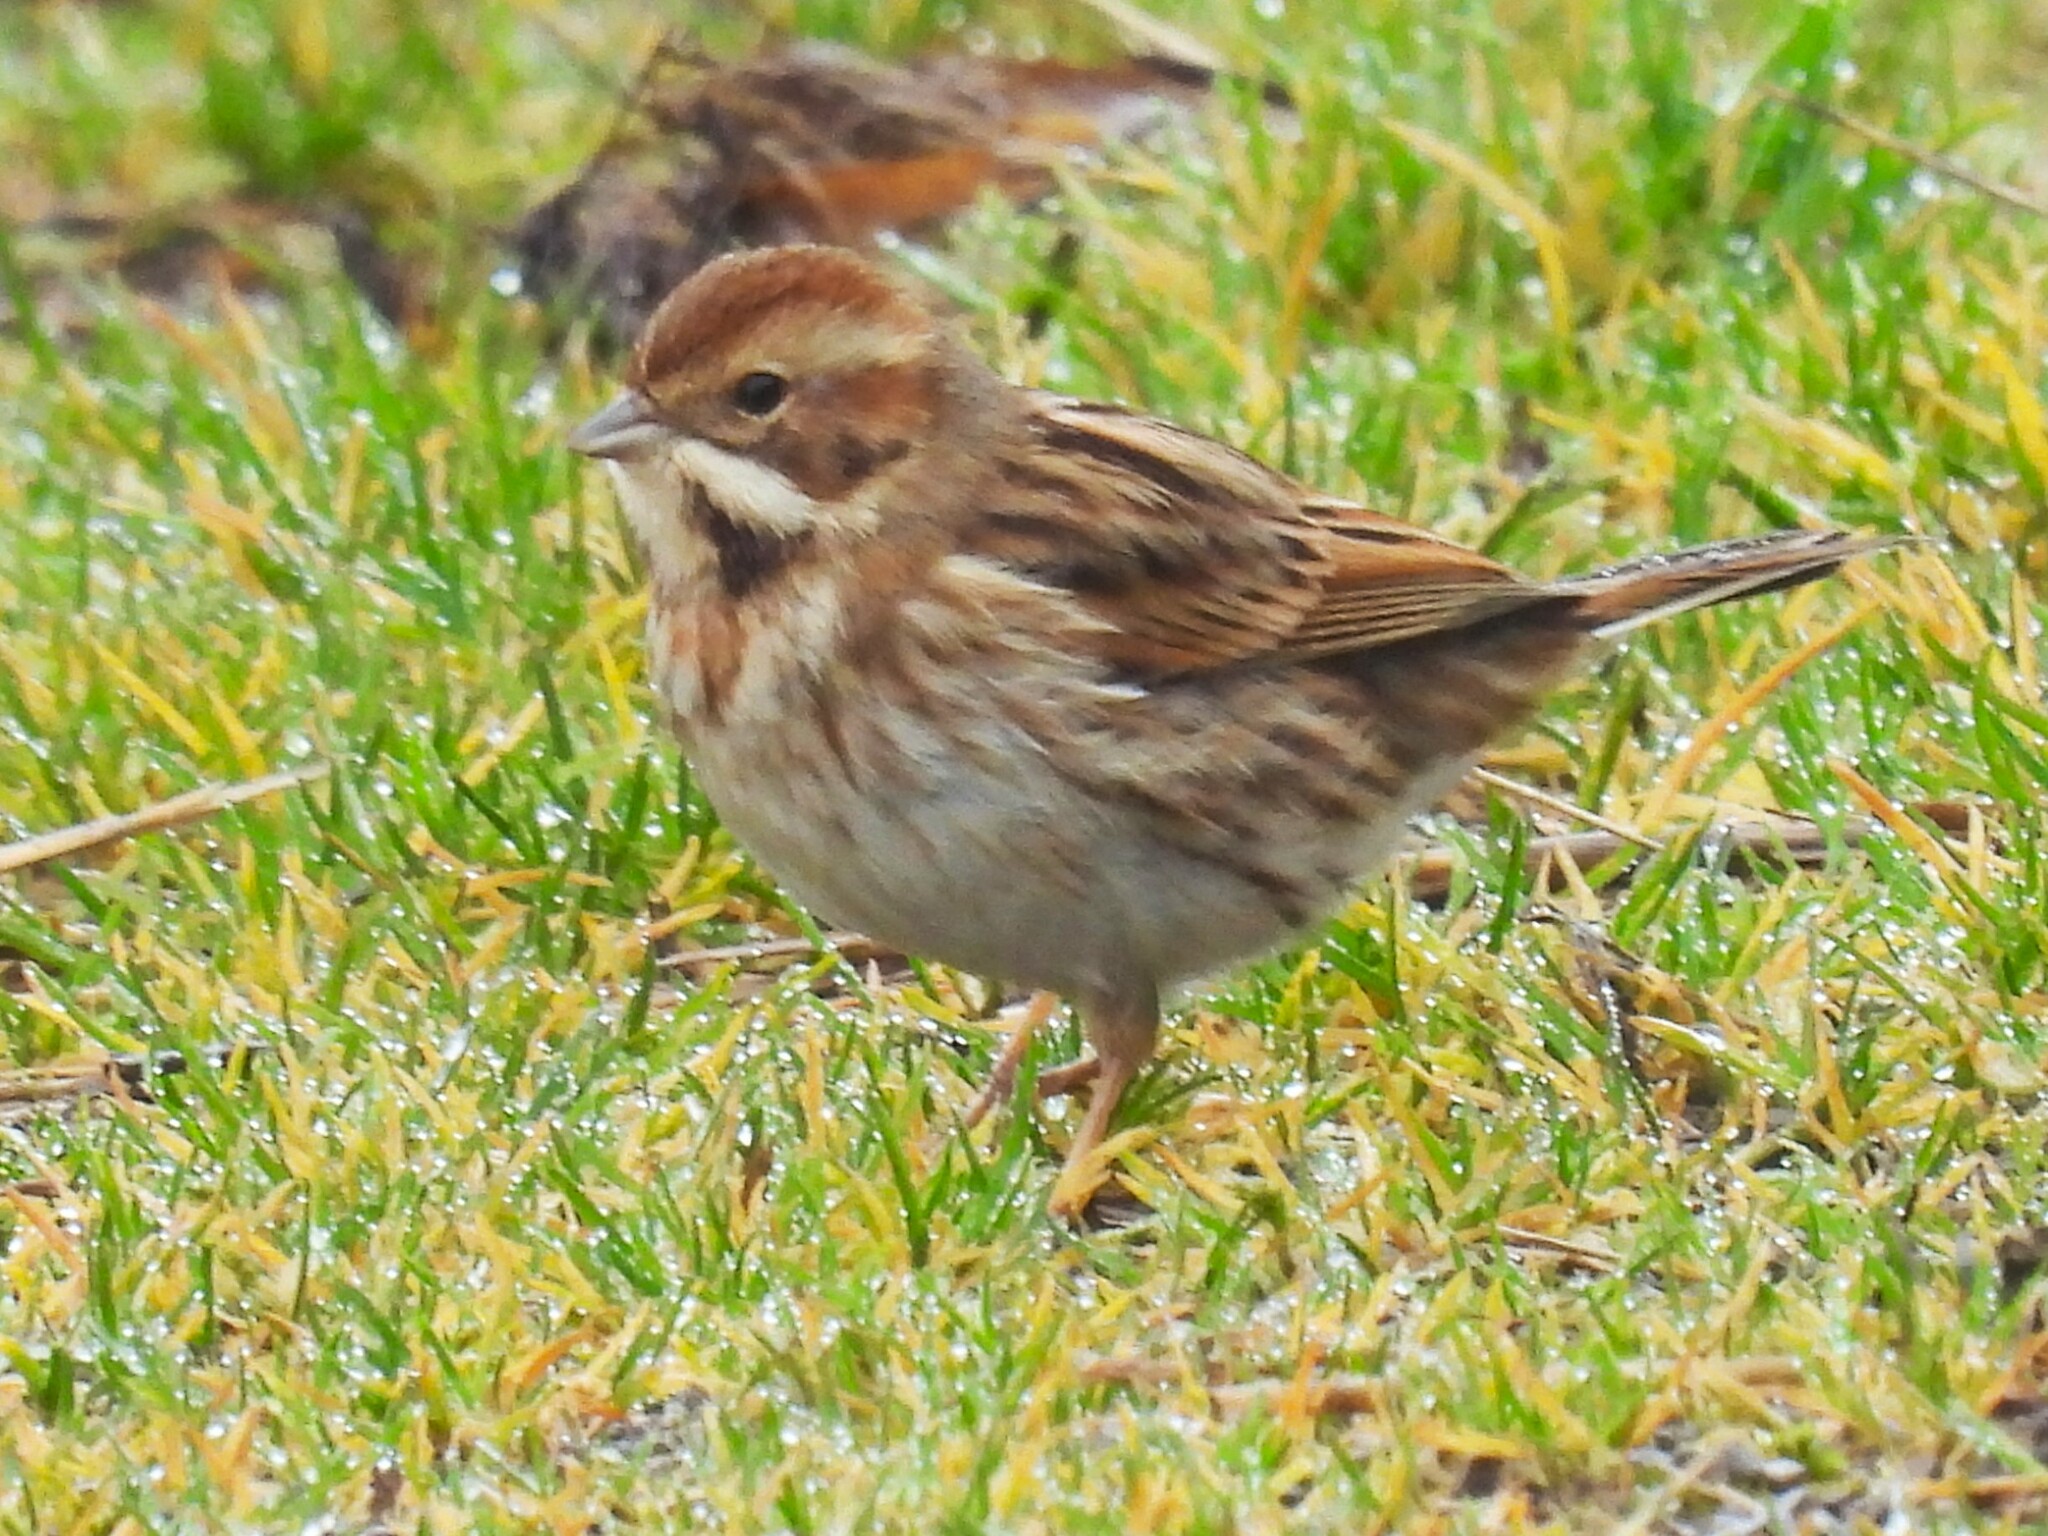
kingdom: Animalia
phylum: Chordata
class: Aves
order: Passeriformes
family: Emberizidae
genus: Emberiza
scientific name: Emberiza schoeniclus
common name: Reed bunting
